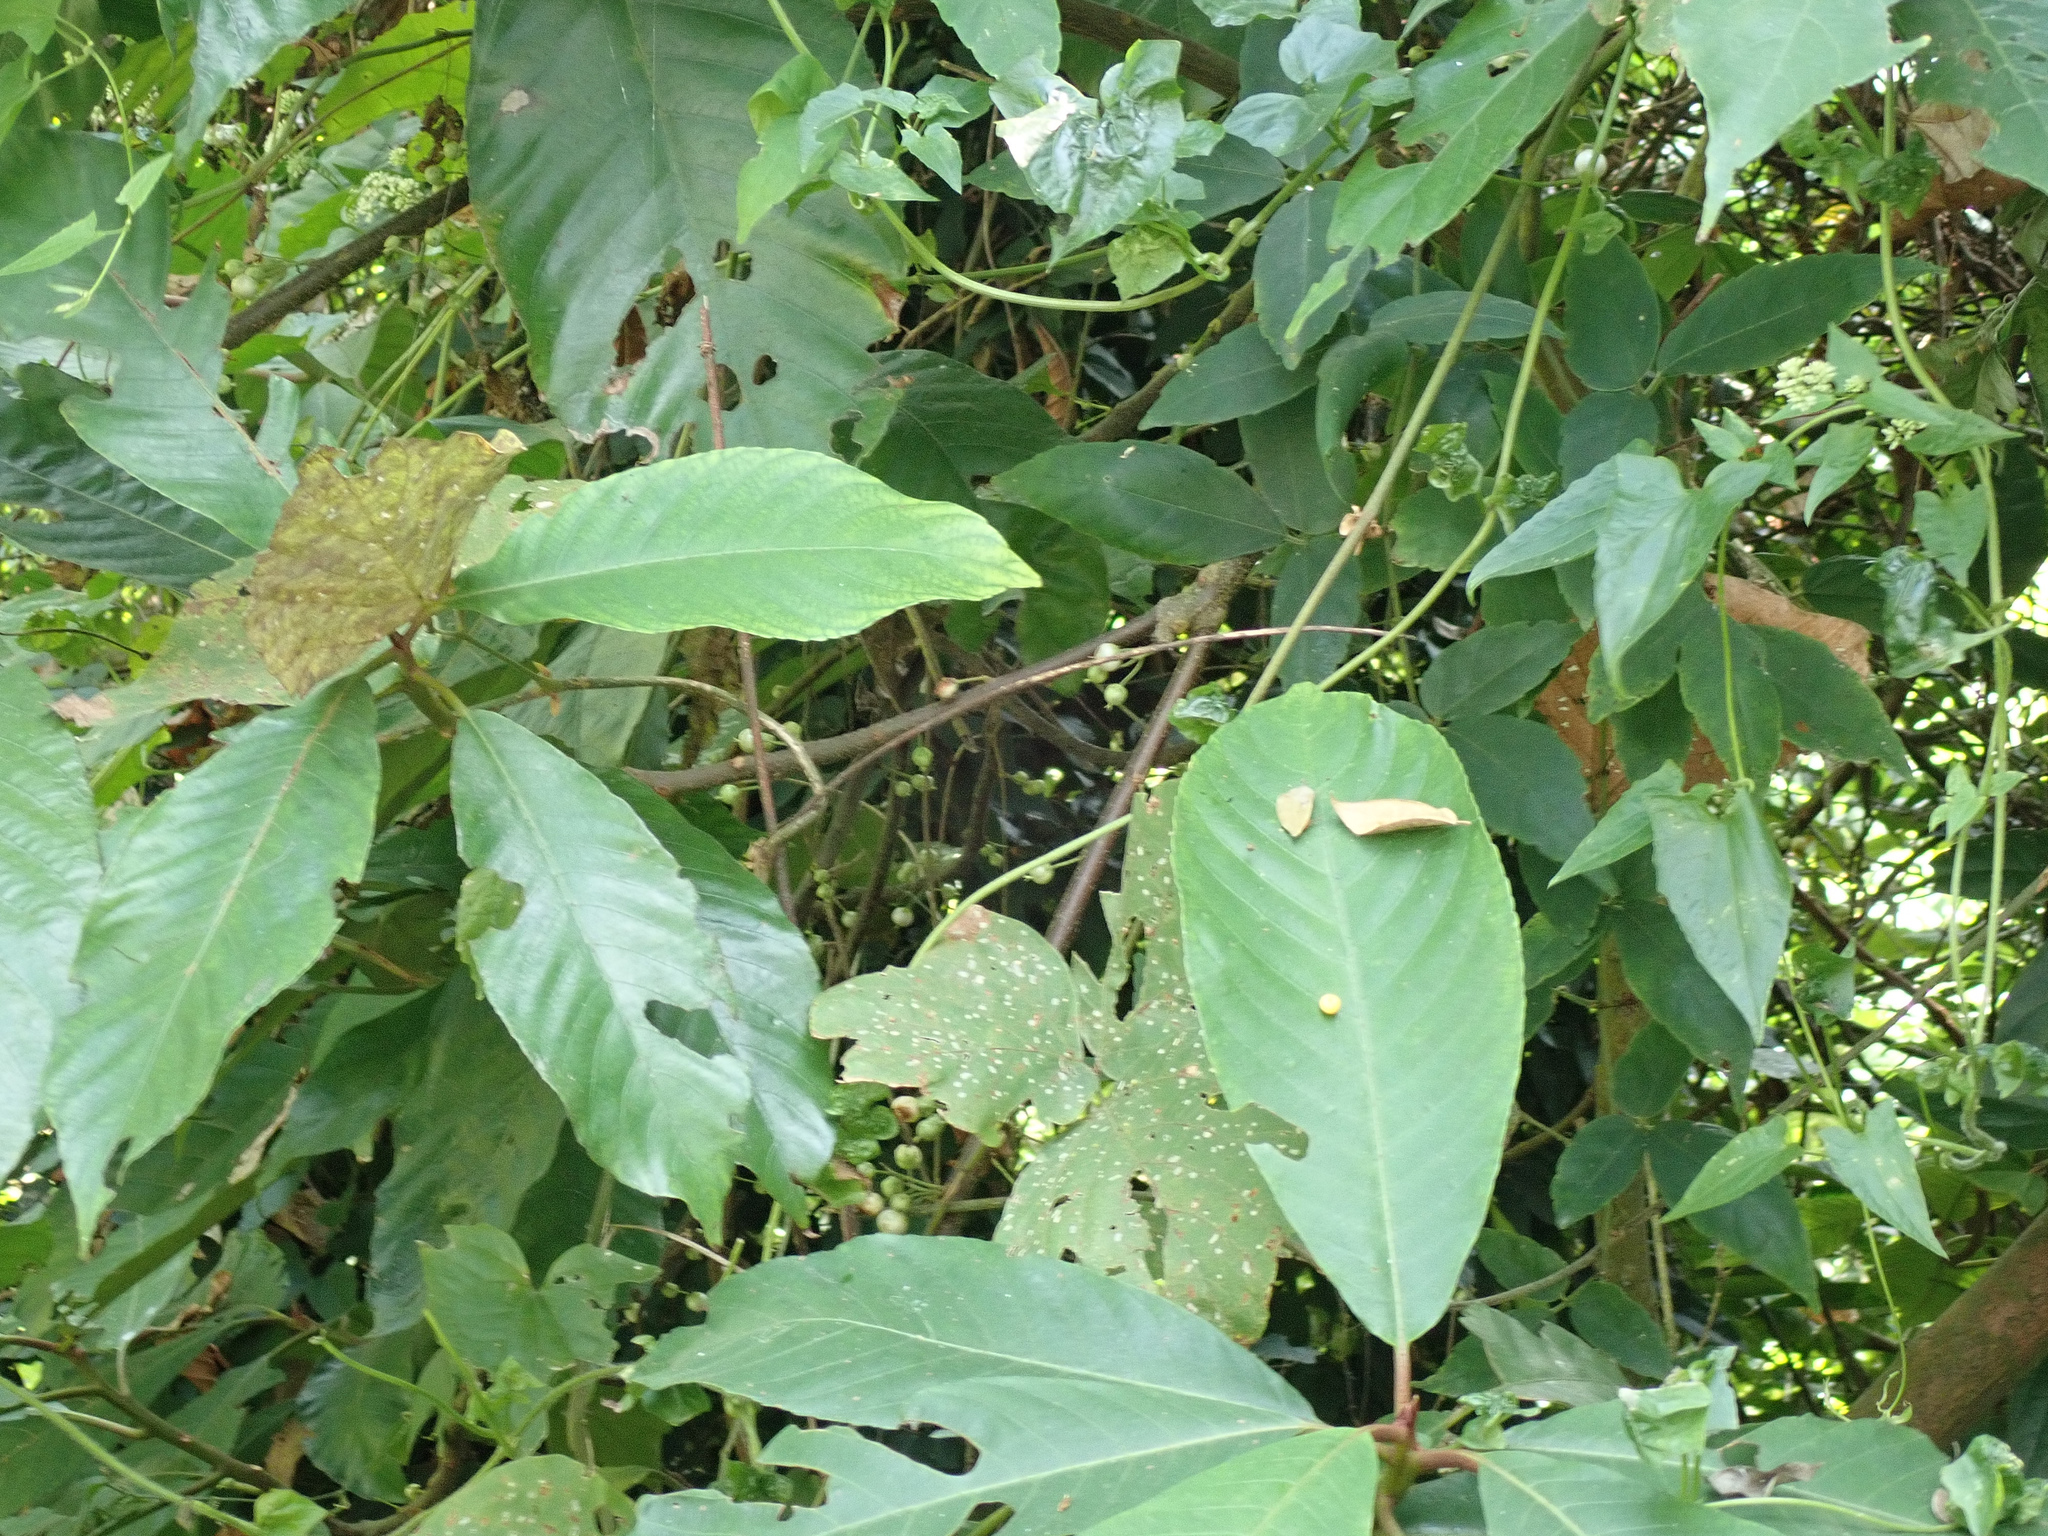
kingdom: Plantae
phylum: Tracheophyta
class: Magnoliopsida
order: Ericales
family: Actinidiaceae
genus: Saurauia
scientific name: Saurauia tristyla
